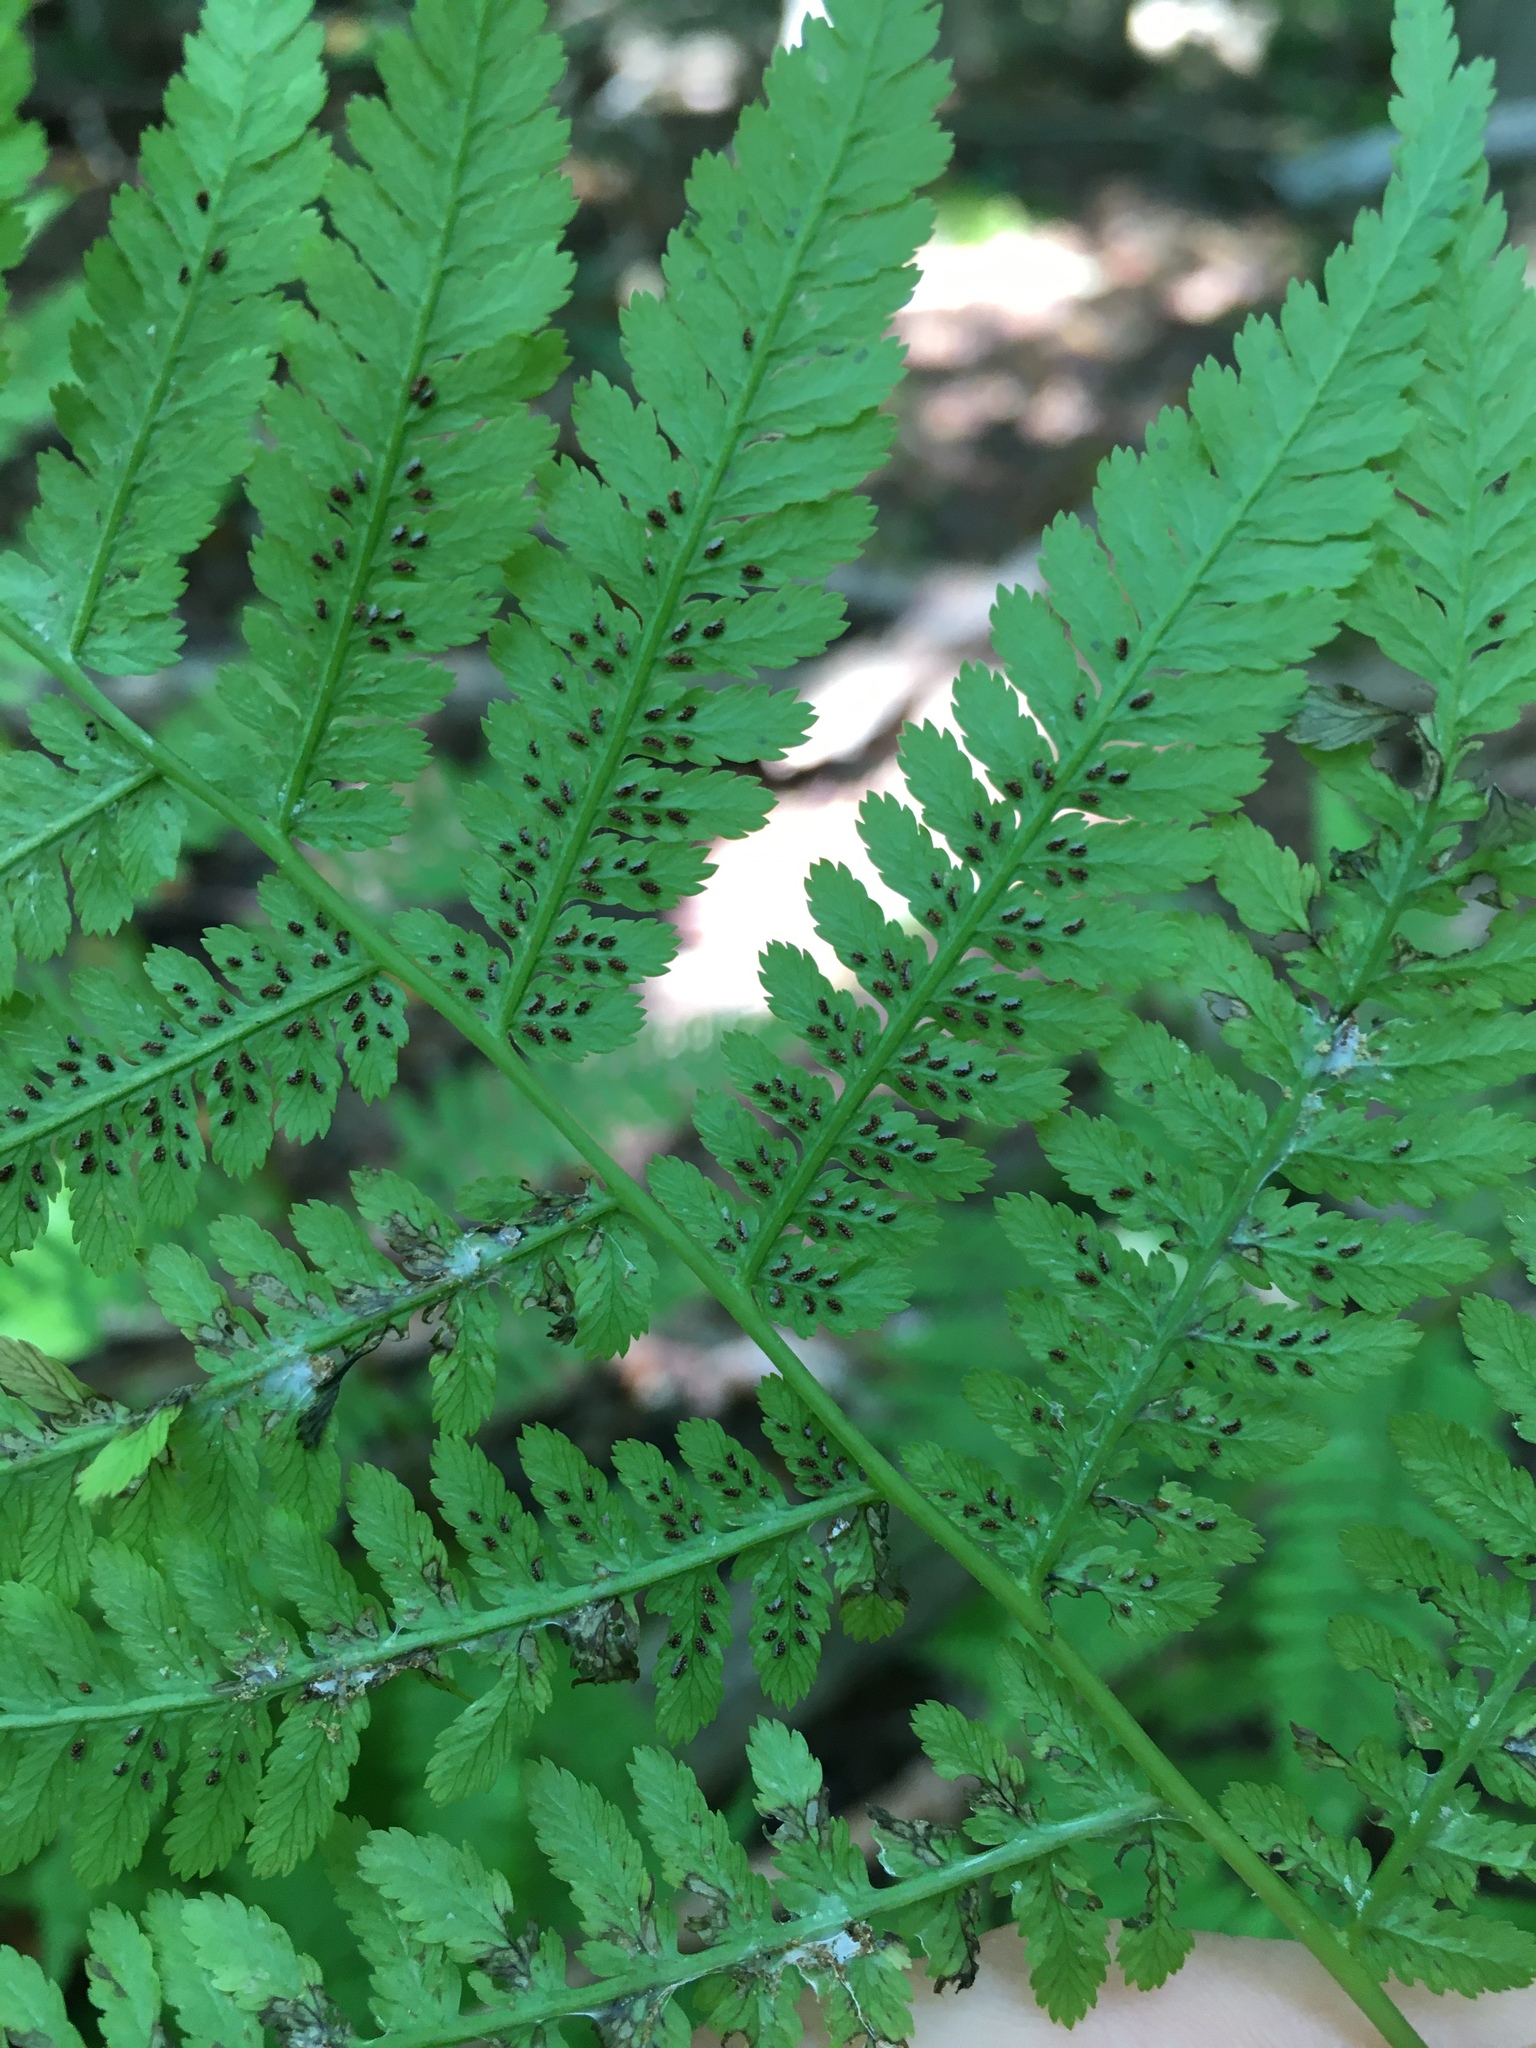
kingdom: Plantae
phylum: Tracheophyta
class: Polypodiopsida
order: Polypodiales
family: Athyriaceae
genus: Athyrium
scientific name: Athyrium angustum
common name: Northern lady fern
